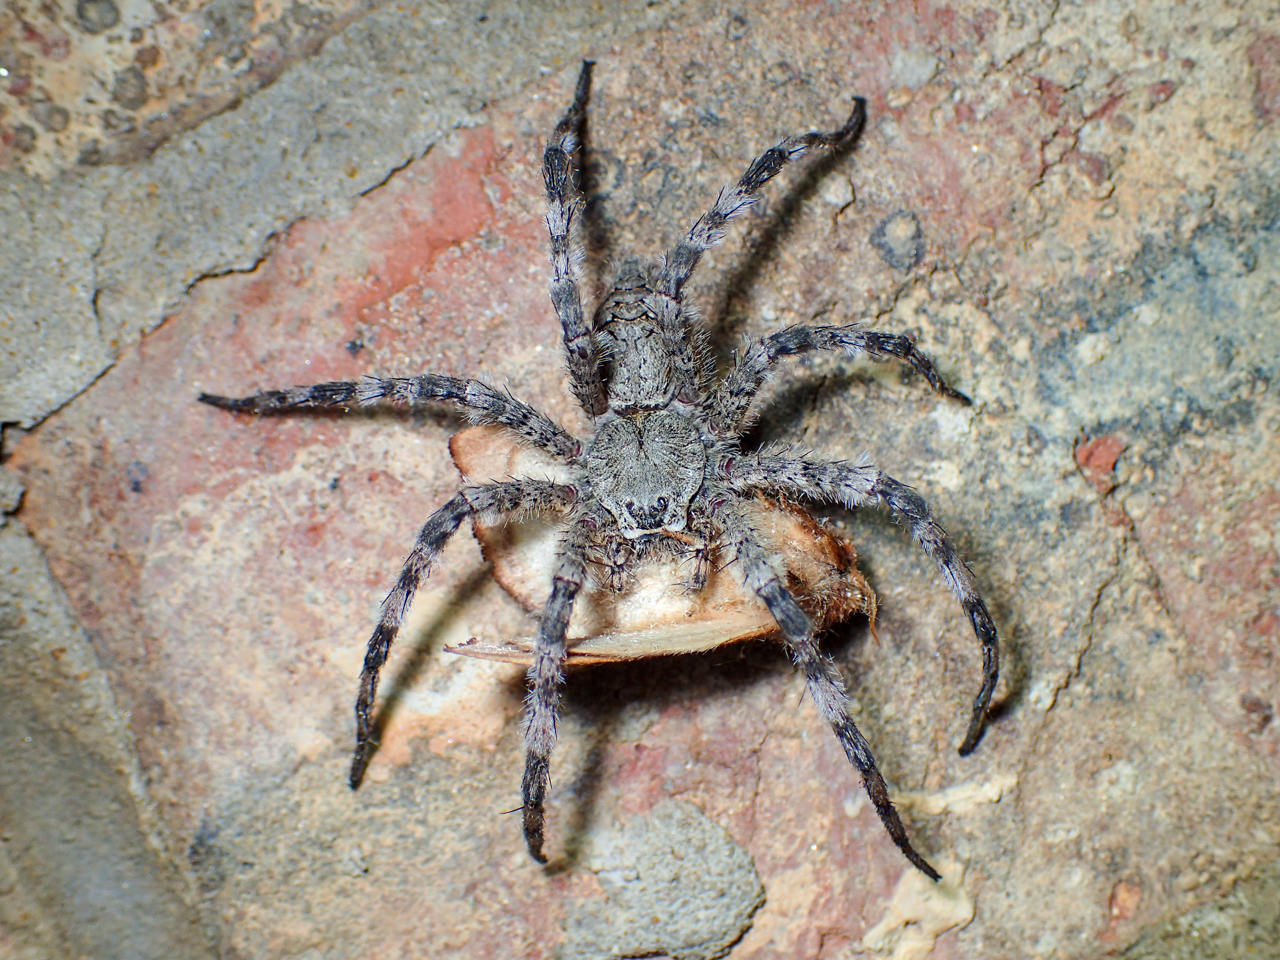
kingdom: Animalia
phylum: Arthropoda
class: Arachnida
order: Araneae
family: Pisauridae
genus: Dolomedes
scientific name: Dolomedes albineus
